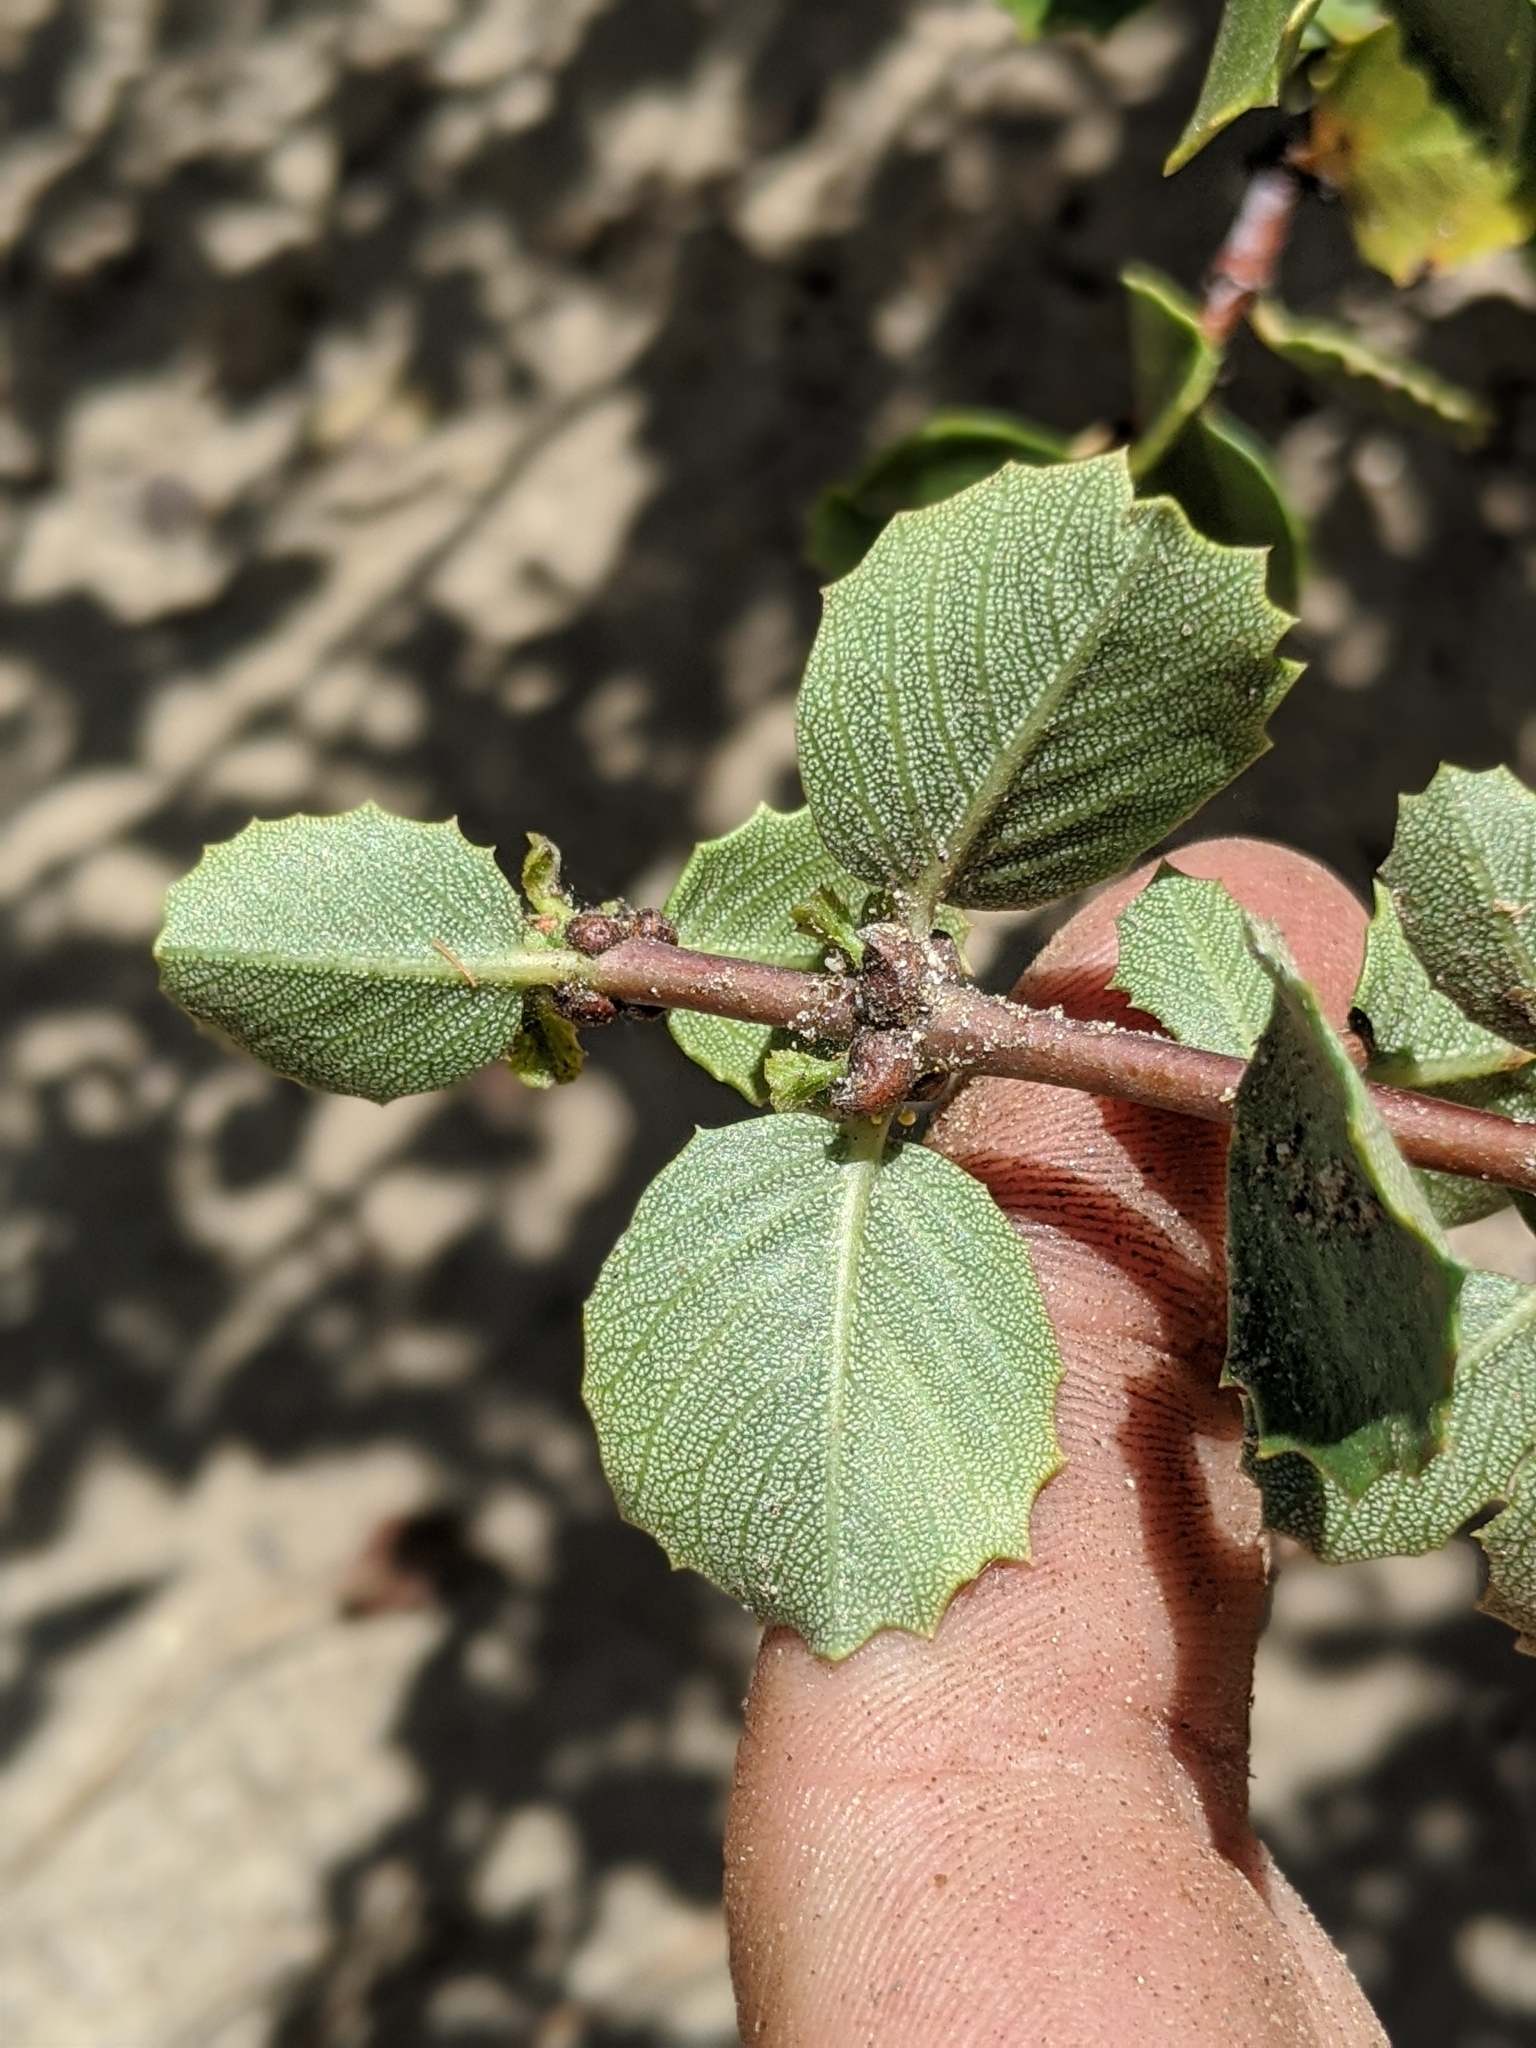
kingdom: Plantae
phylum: Tracheophyta
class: Magnoliopsida
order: Rosales
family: Rhamnaceae
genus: Ceanothus
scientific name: Ceanothus pinetorum
